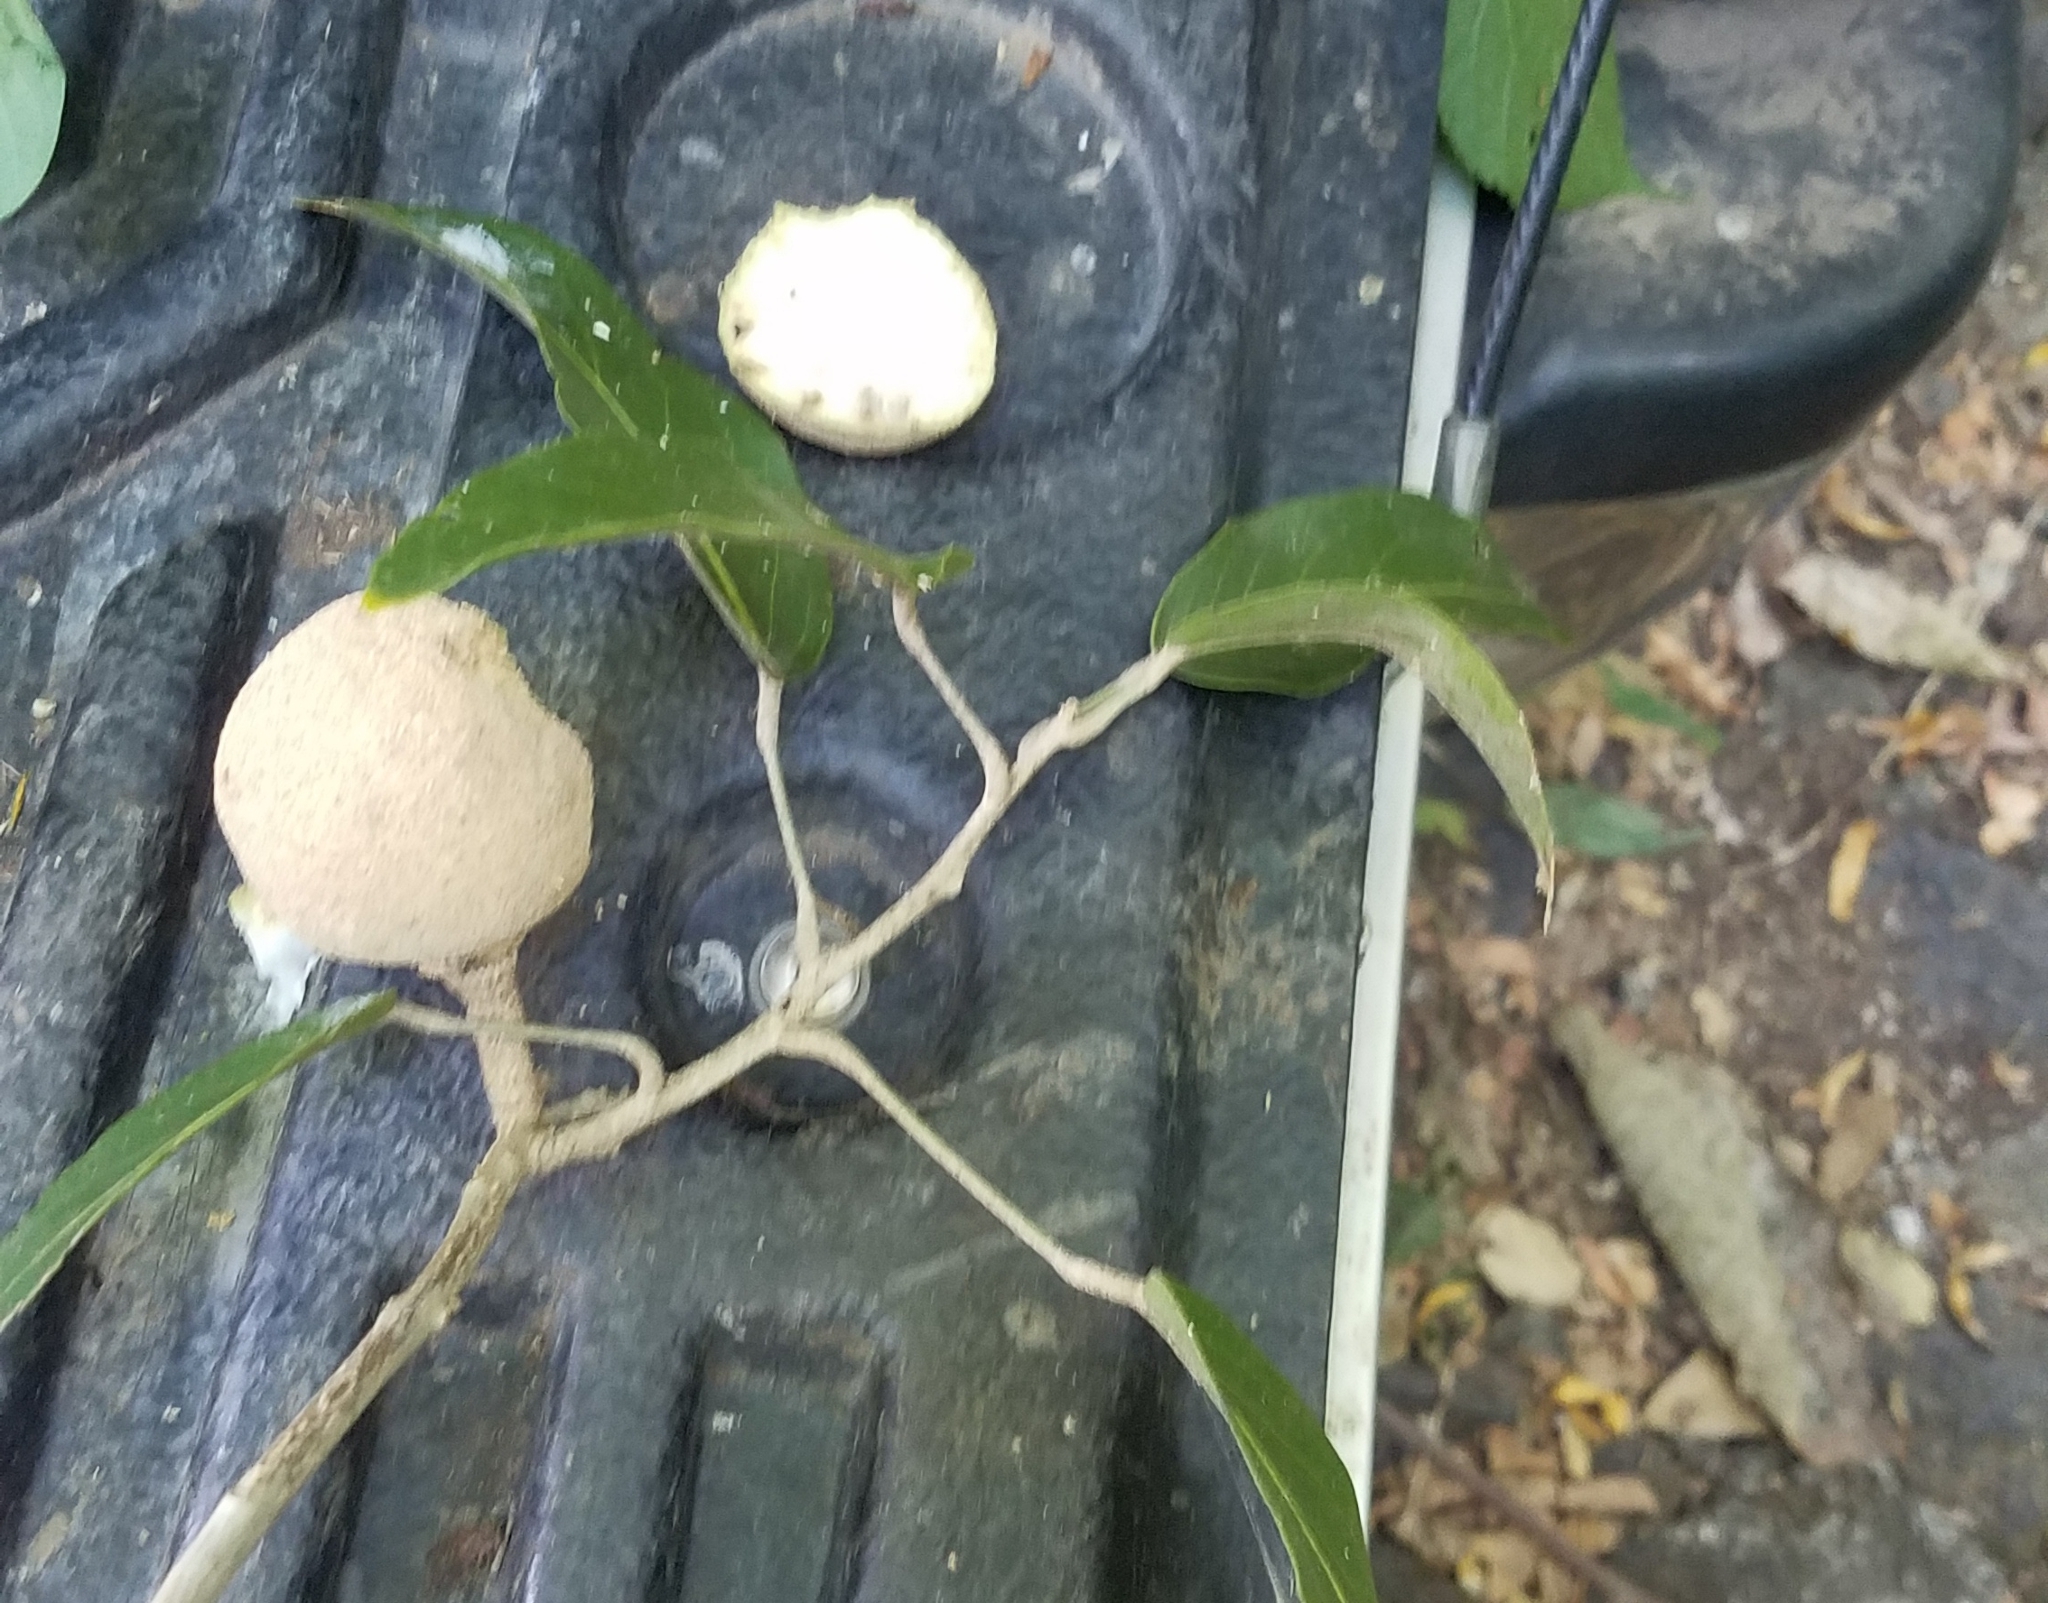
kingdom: Plantae
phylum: Tracheophyta
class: Magnoliopsida
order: Brassicales
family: Capparaceae
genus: Morisonia
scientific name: Morisonia americana
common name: Wild mesple
